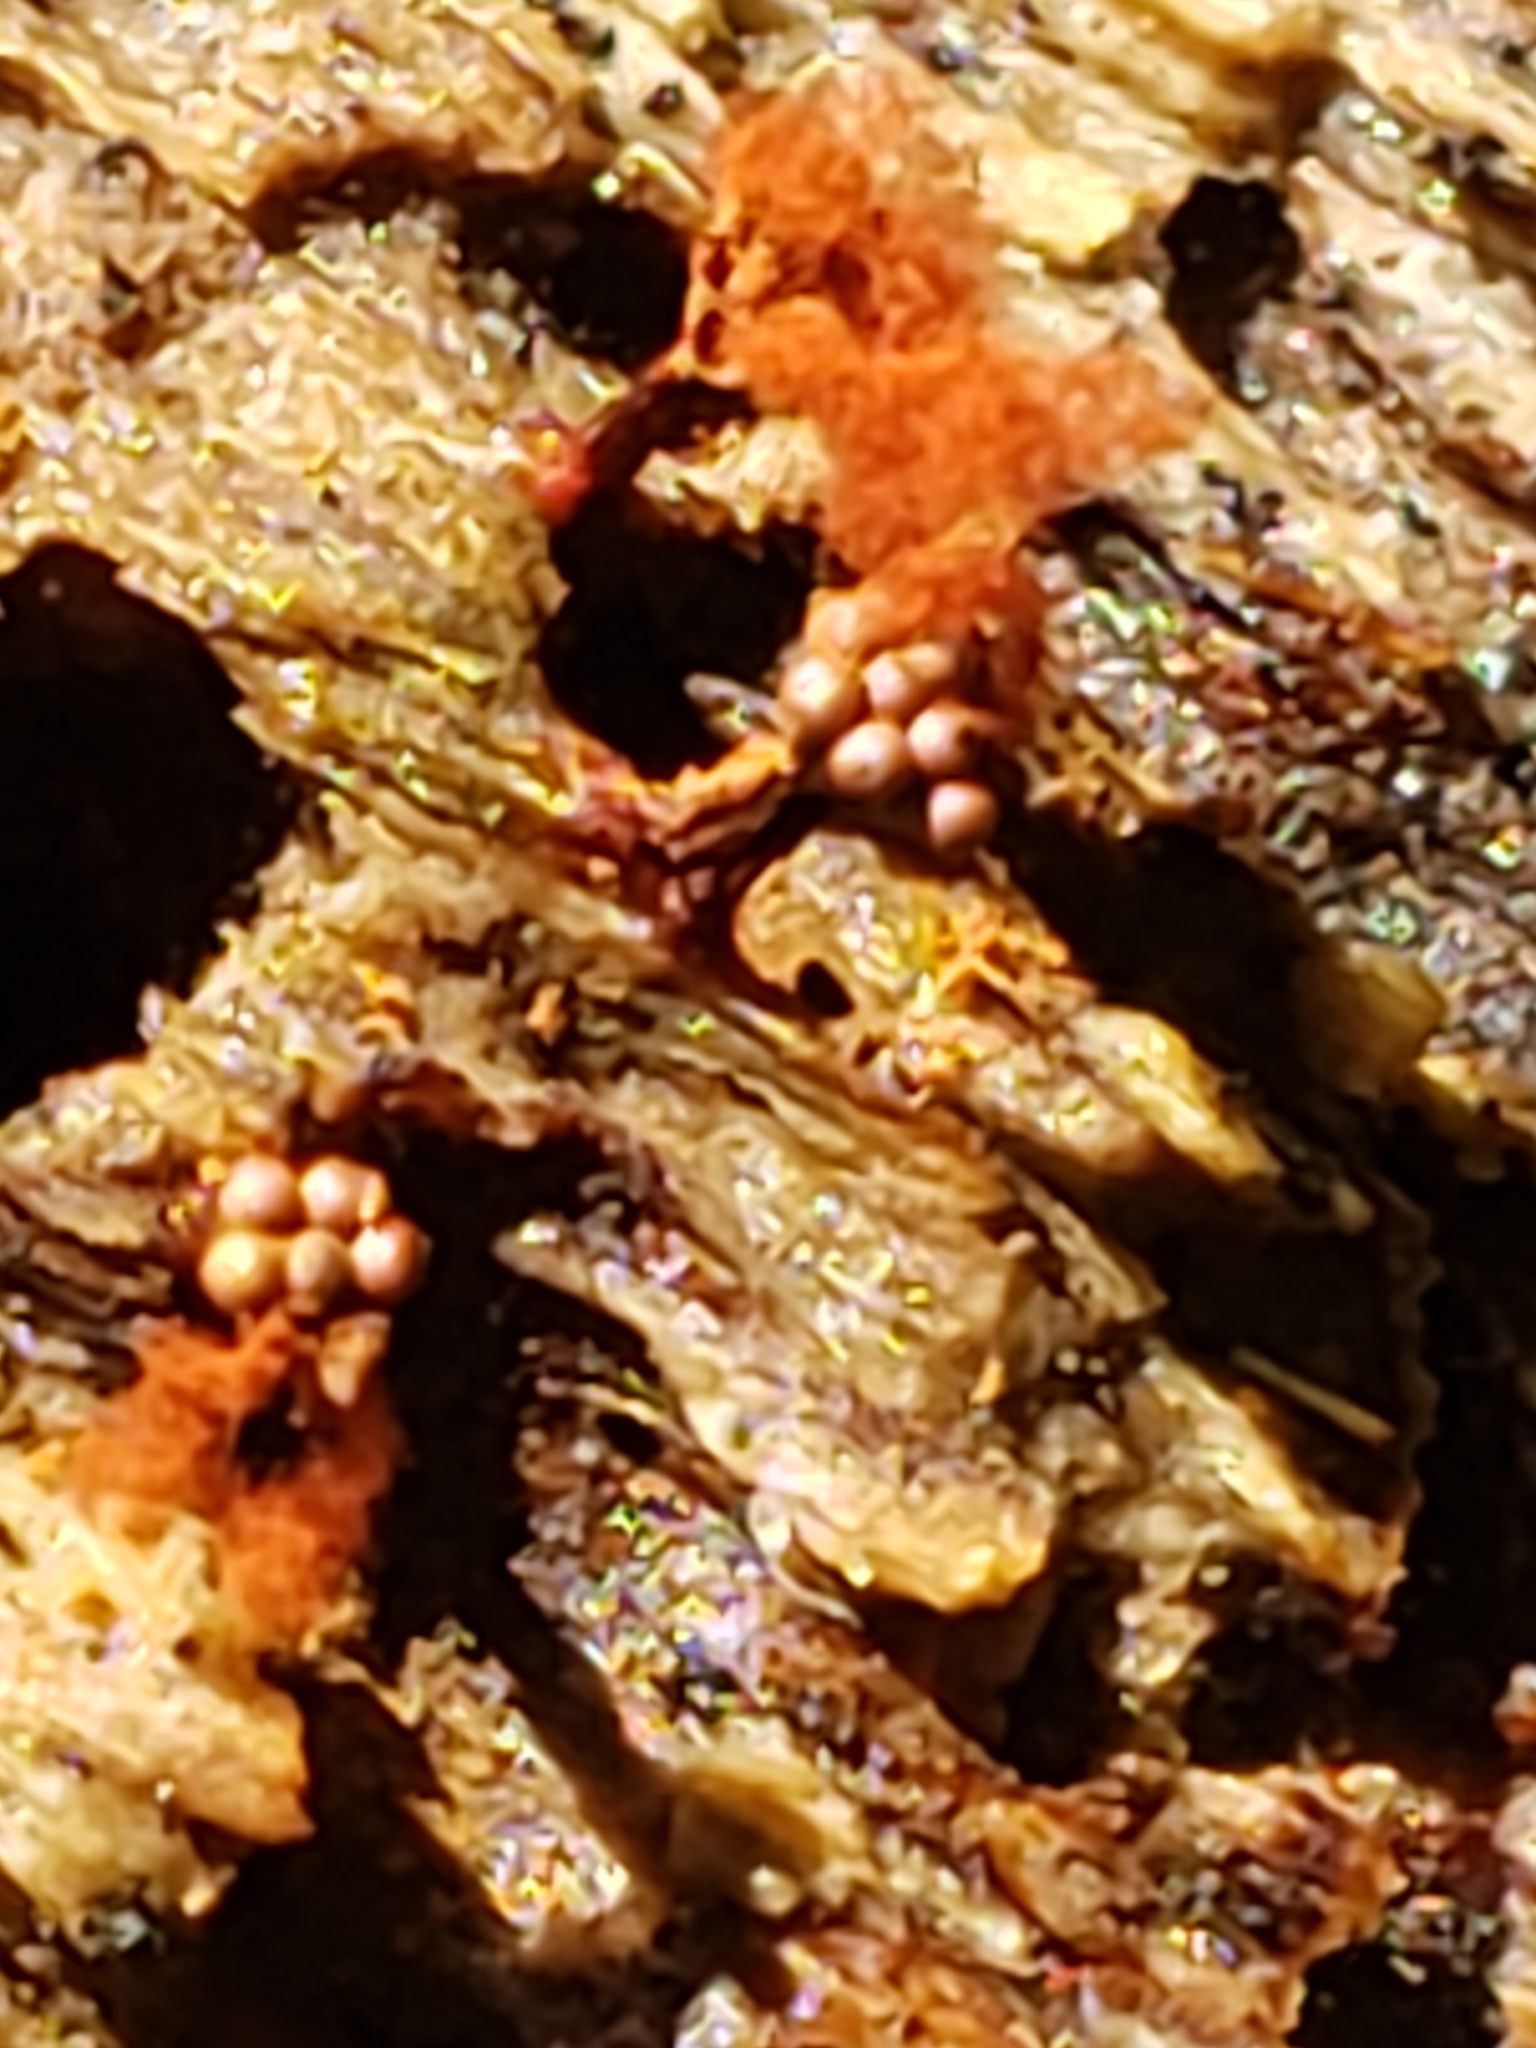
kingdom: Protozoa
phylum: Mycetozoa
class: Myxomycetes
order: Trichiales
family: Trichiaceae
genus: Metatrichia
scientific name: Metatrichia vesparia
